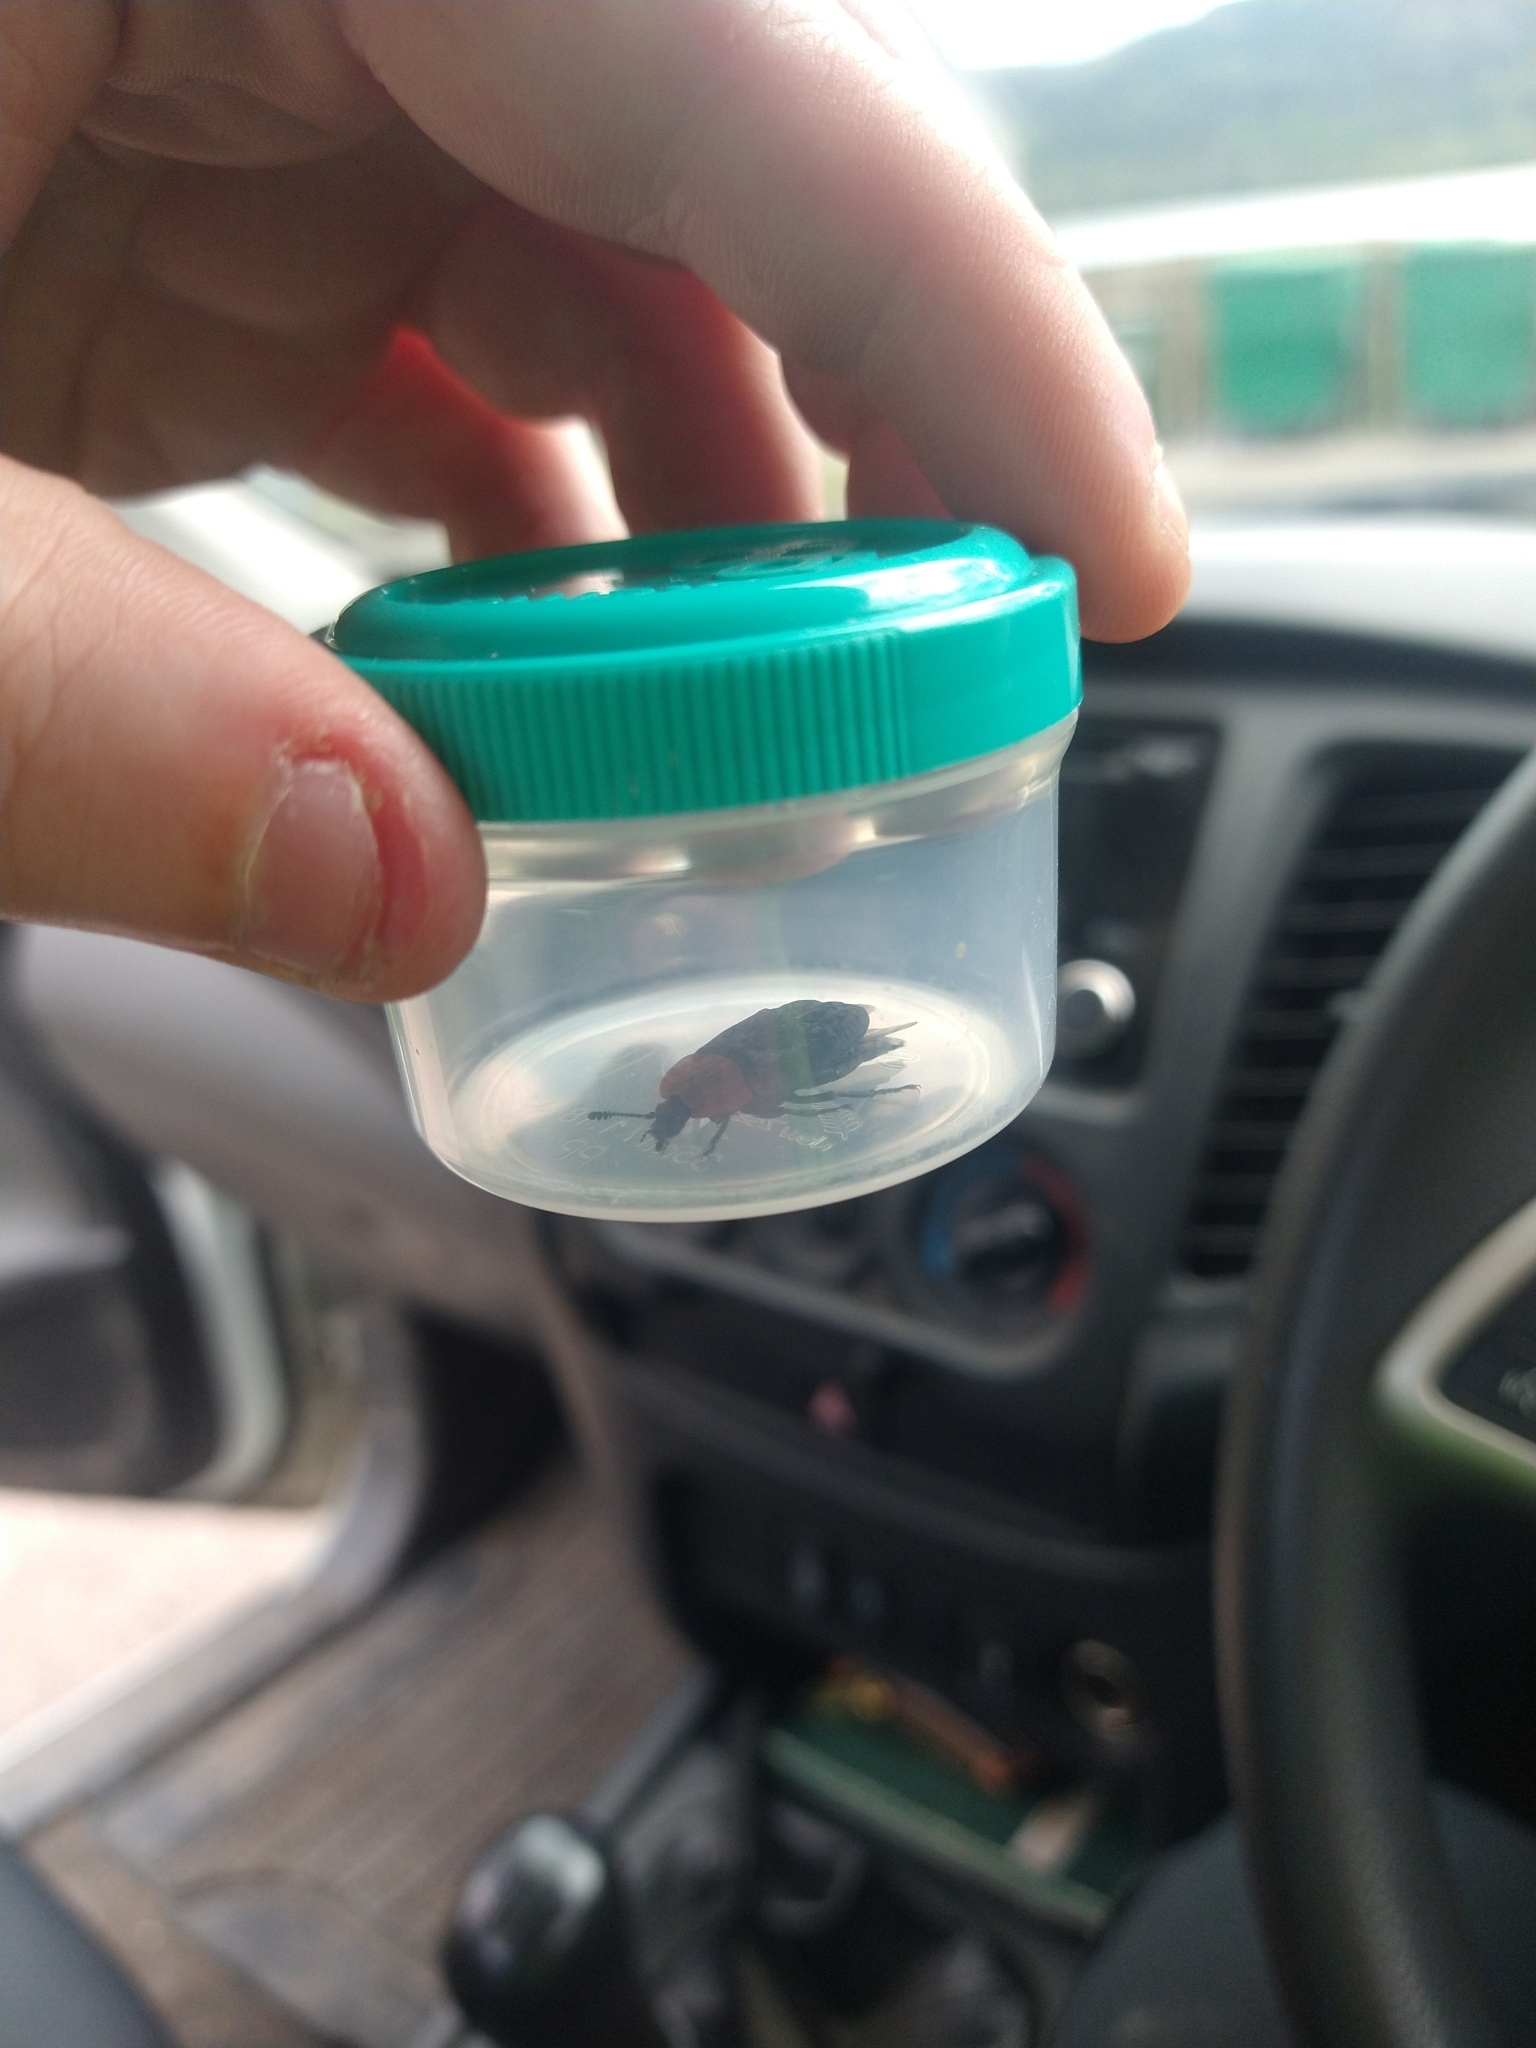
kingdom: Animalia
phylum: Arthropoda
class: Insecta
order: Coleoptera
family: Staphylinidae
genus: Oiceoptoma
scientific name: Oiceoptoma thoracicum
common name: Red-breasted carrion beetle
